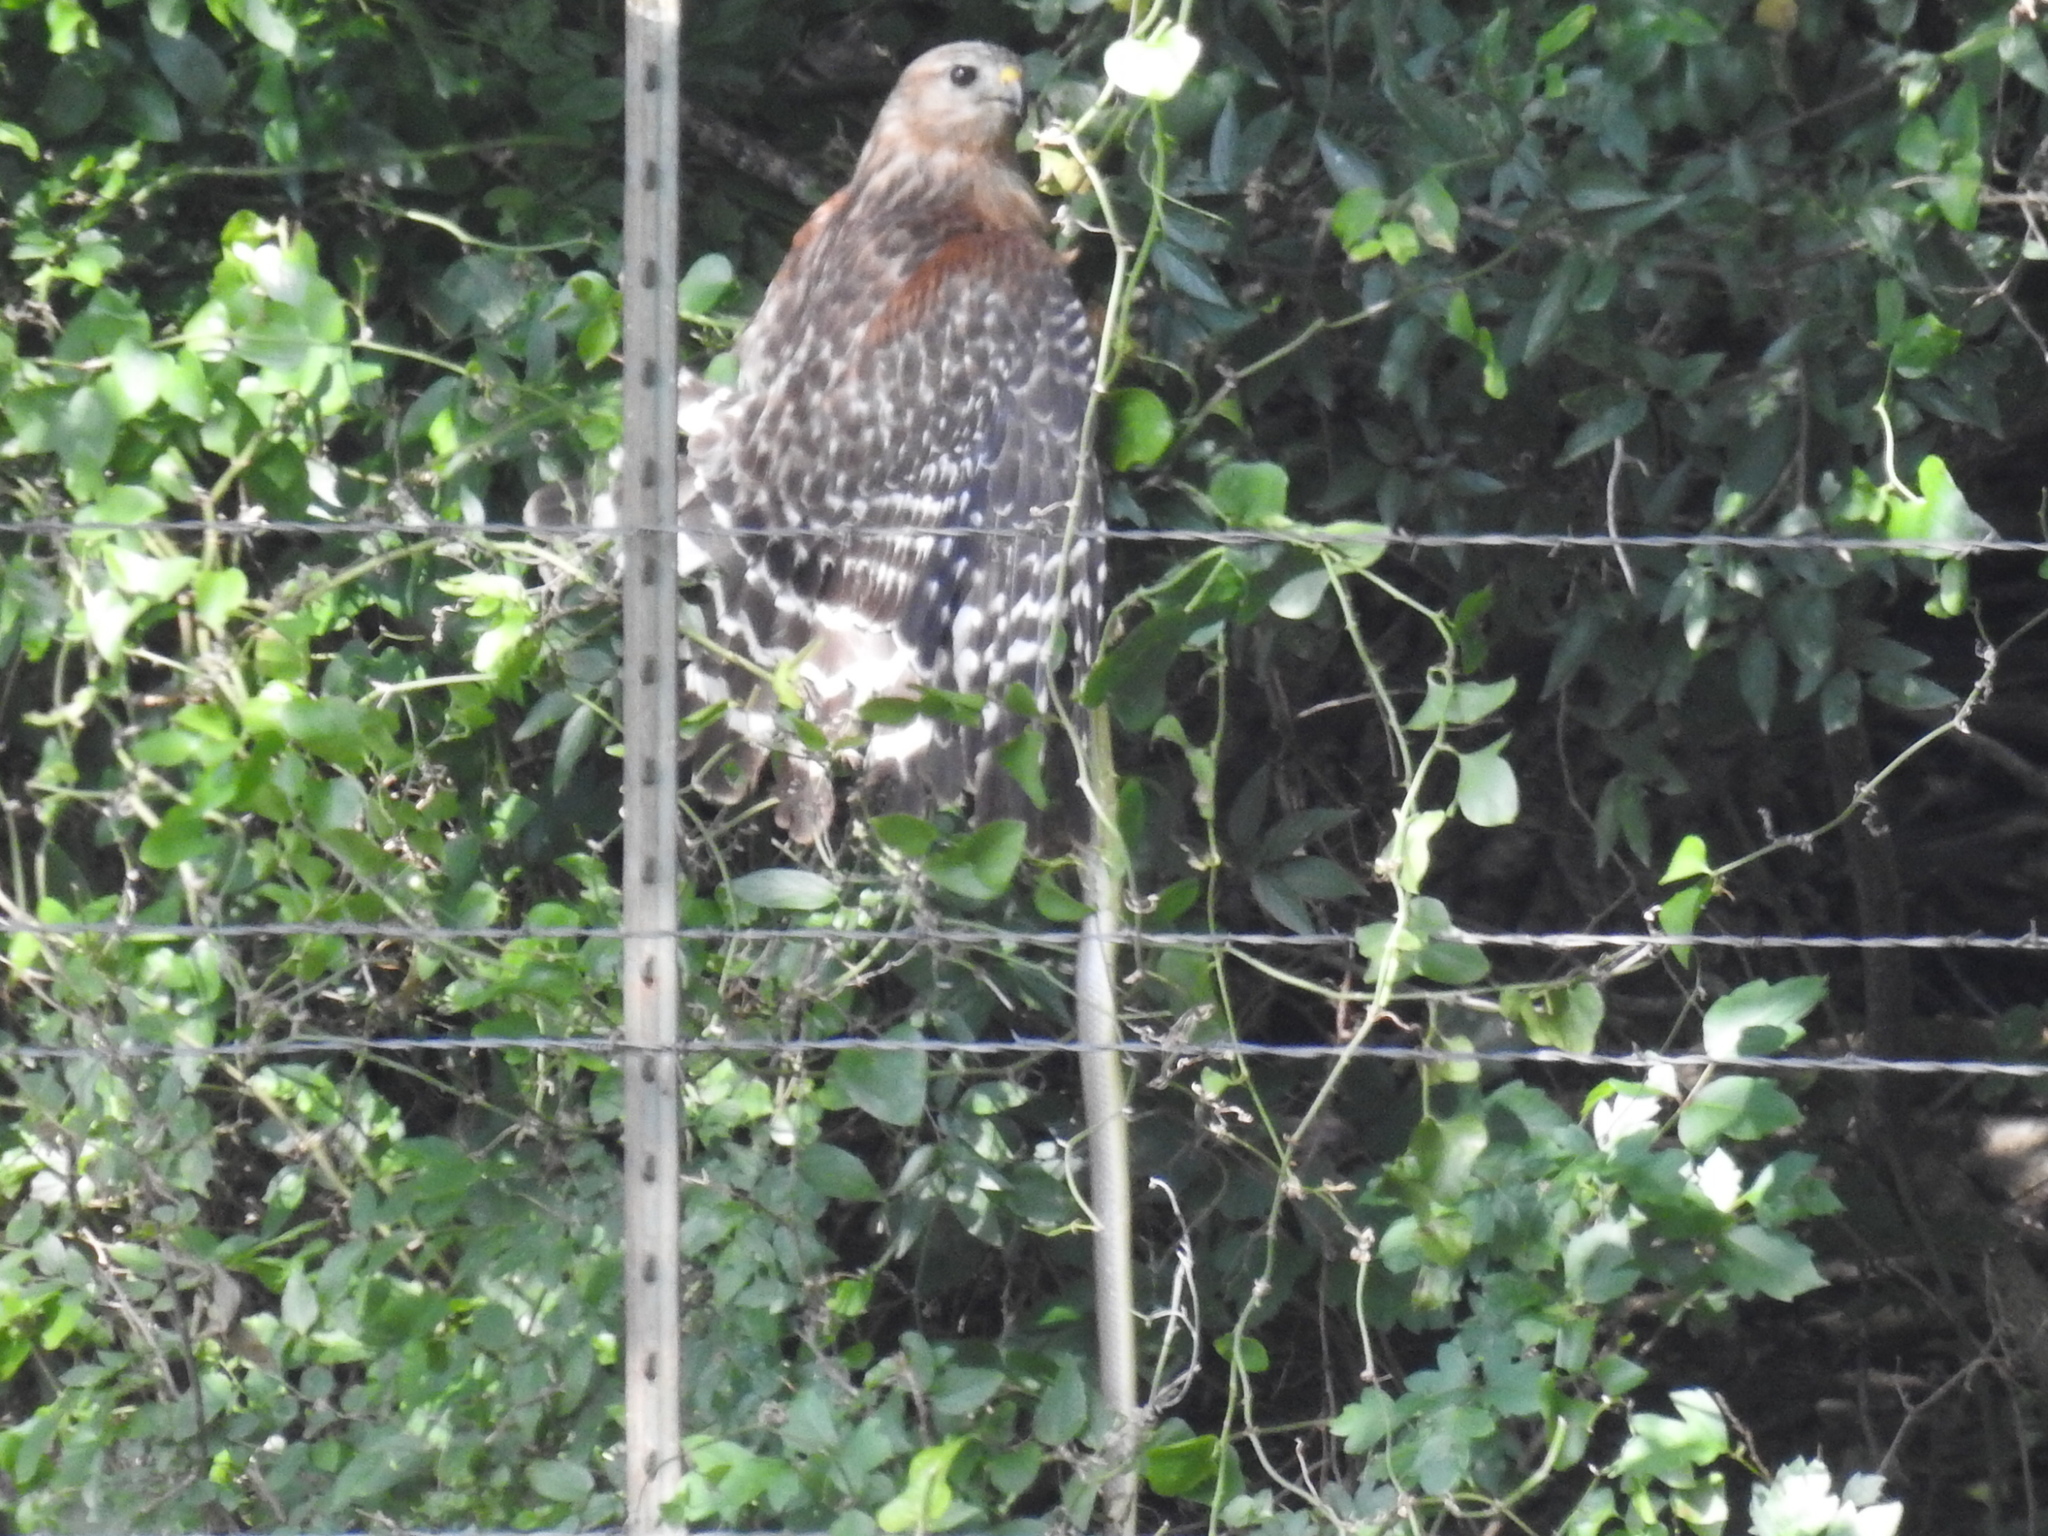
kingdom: Animalia
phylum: Chordata
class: Aves
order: Accipitriformes
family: Accipitridae
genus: Buteo
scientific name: Buteo lineatus
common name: Red-shouldered hawk
